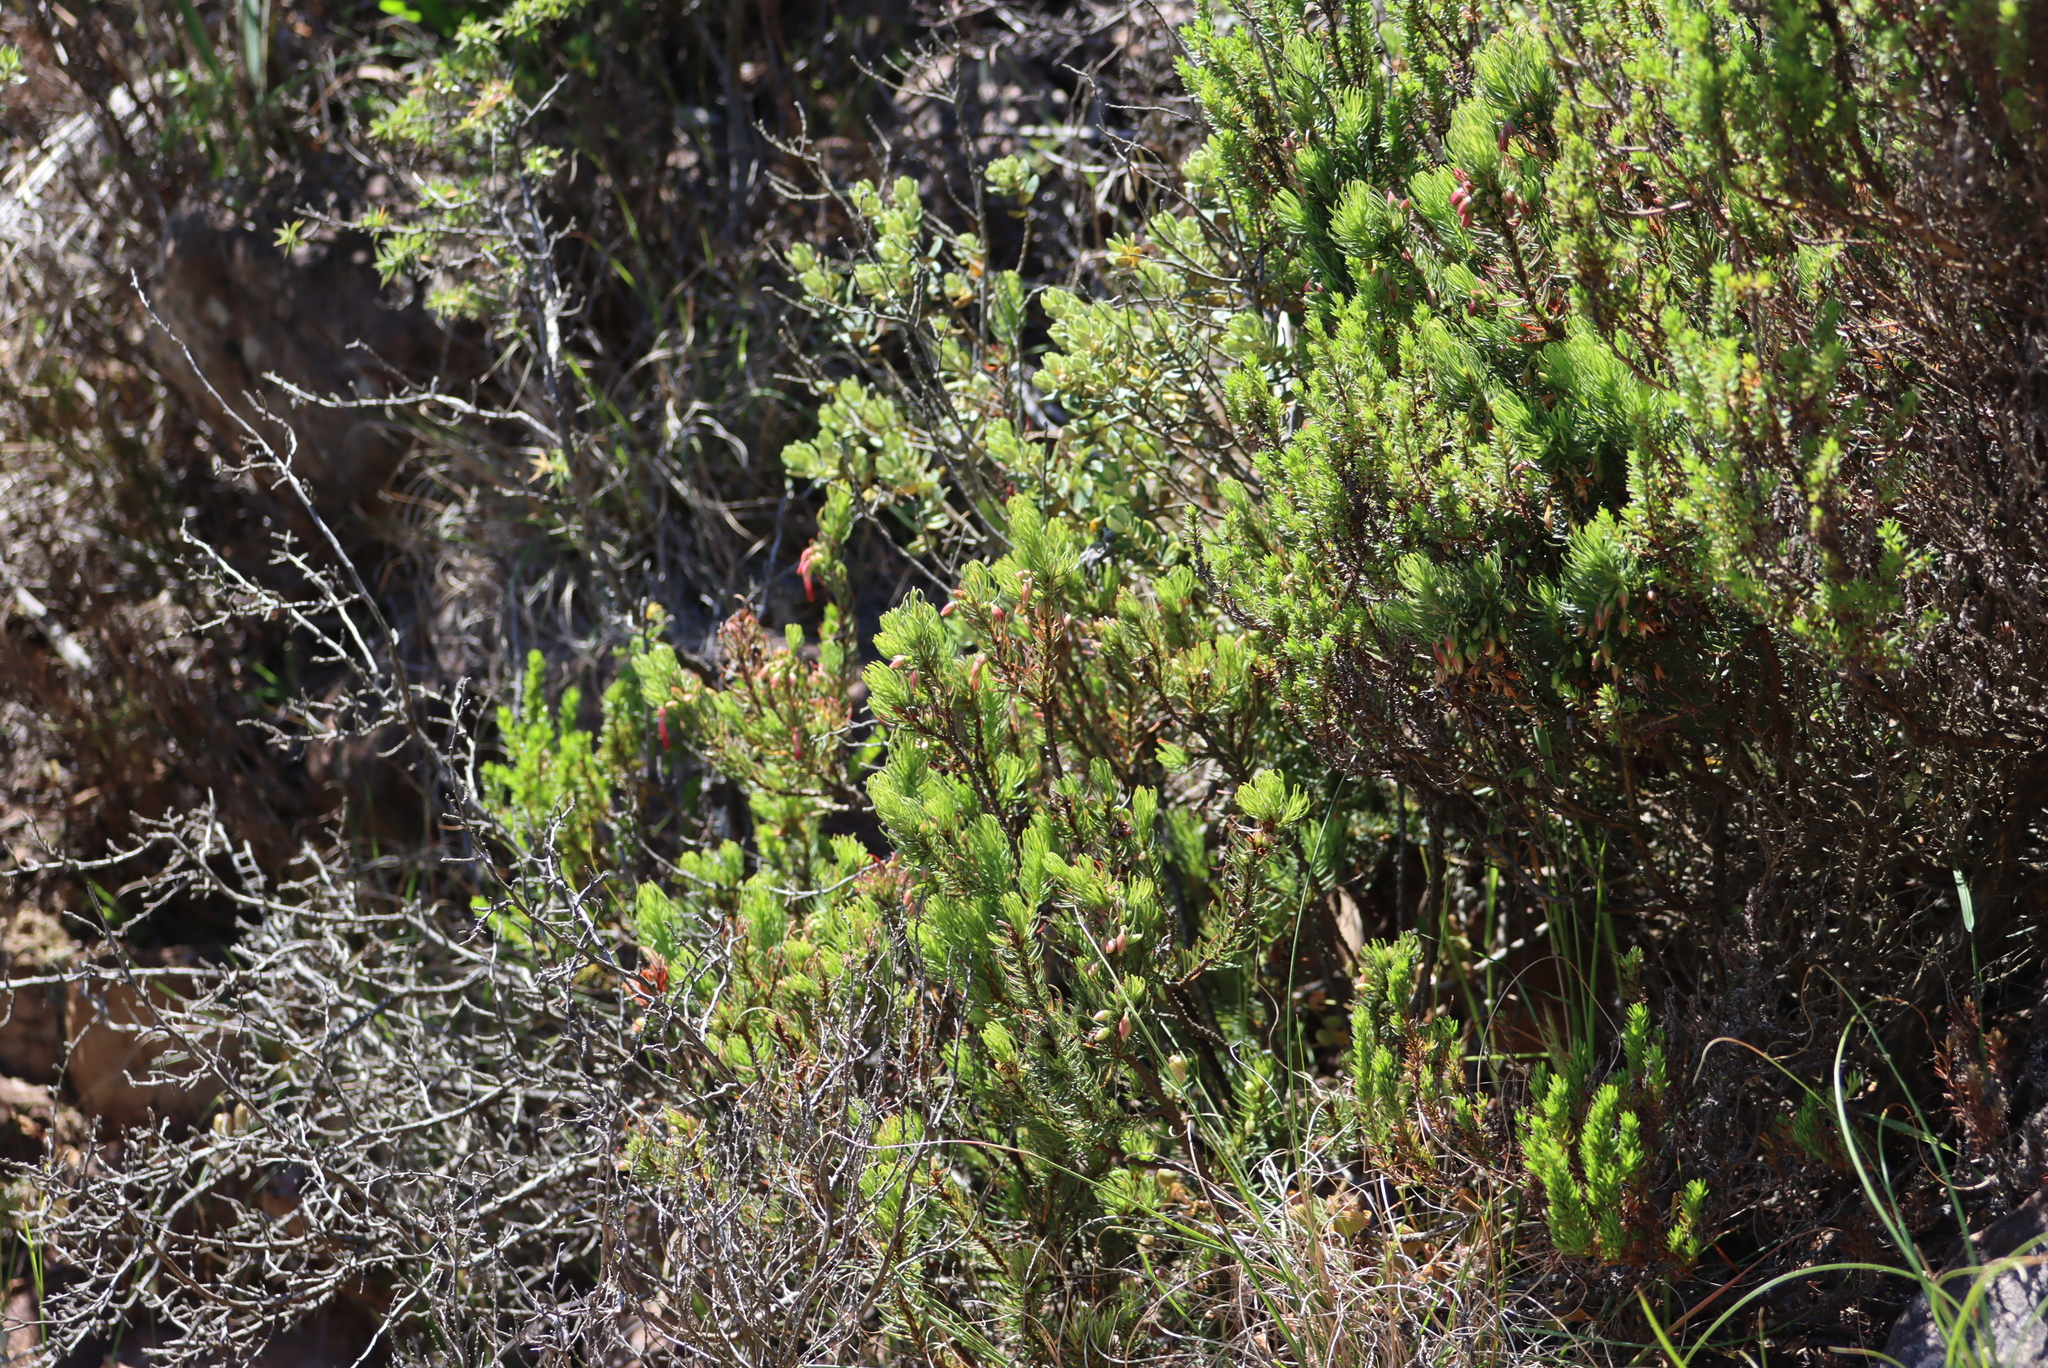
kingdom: Plantae
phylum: Tracheophyta
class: Magnoliopsida
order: Ericales
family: Ericaceae
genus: Erica
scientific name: Erica plukenetii
